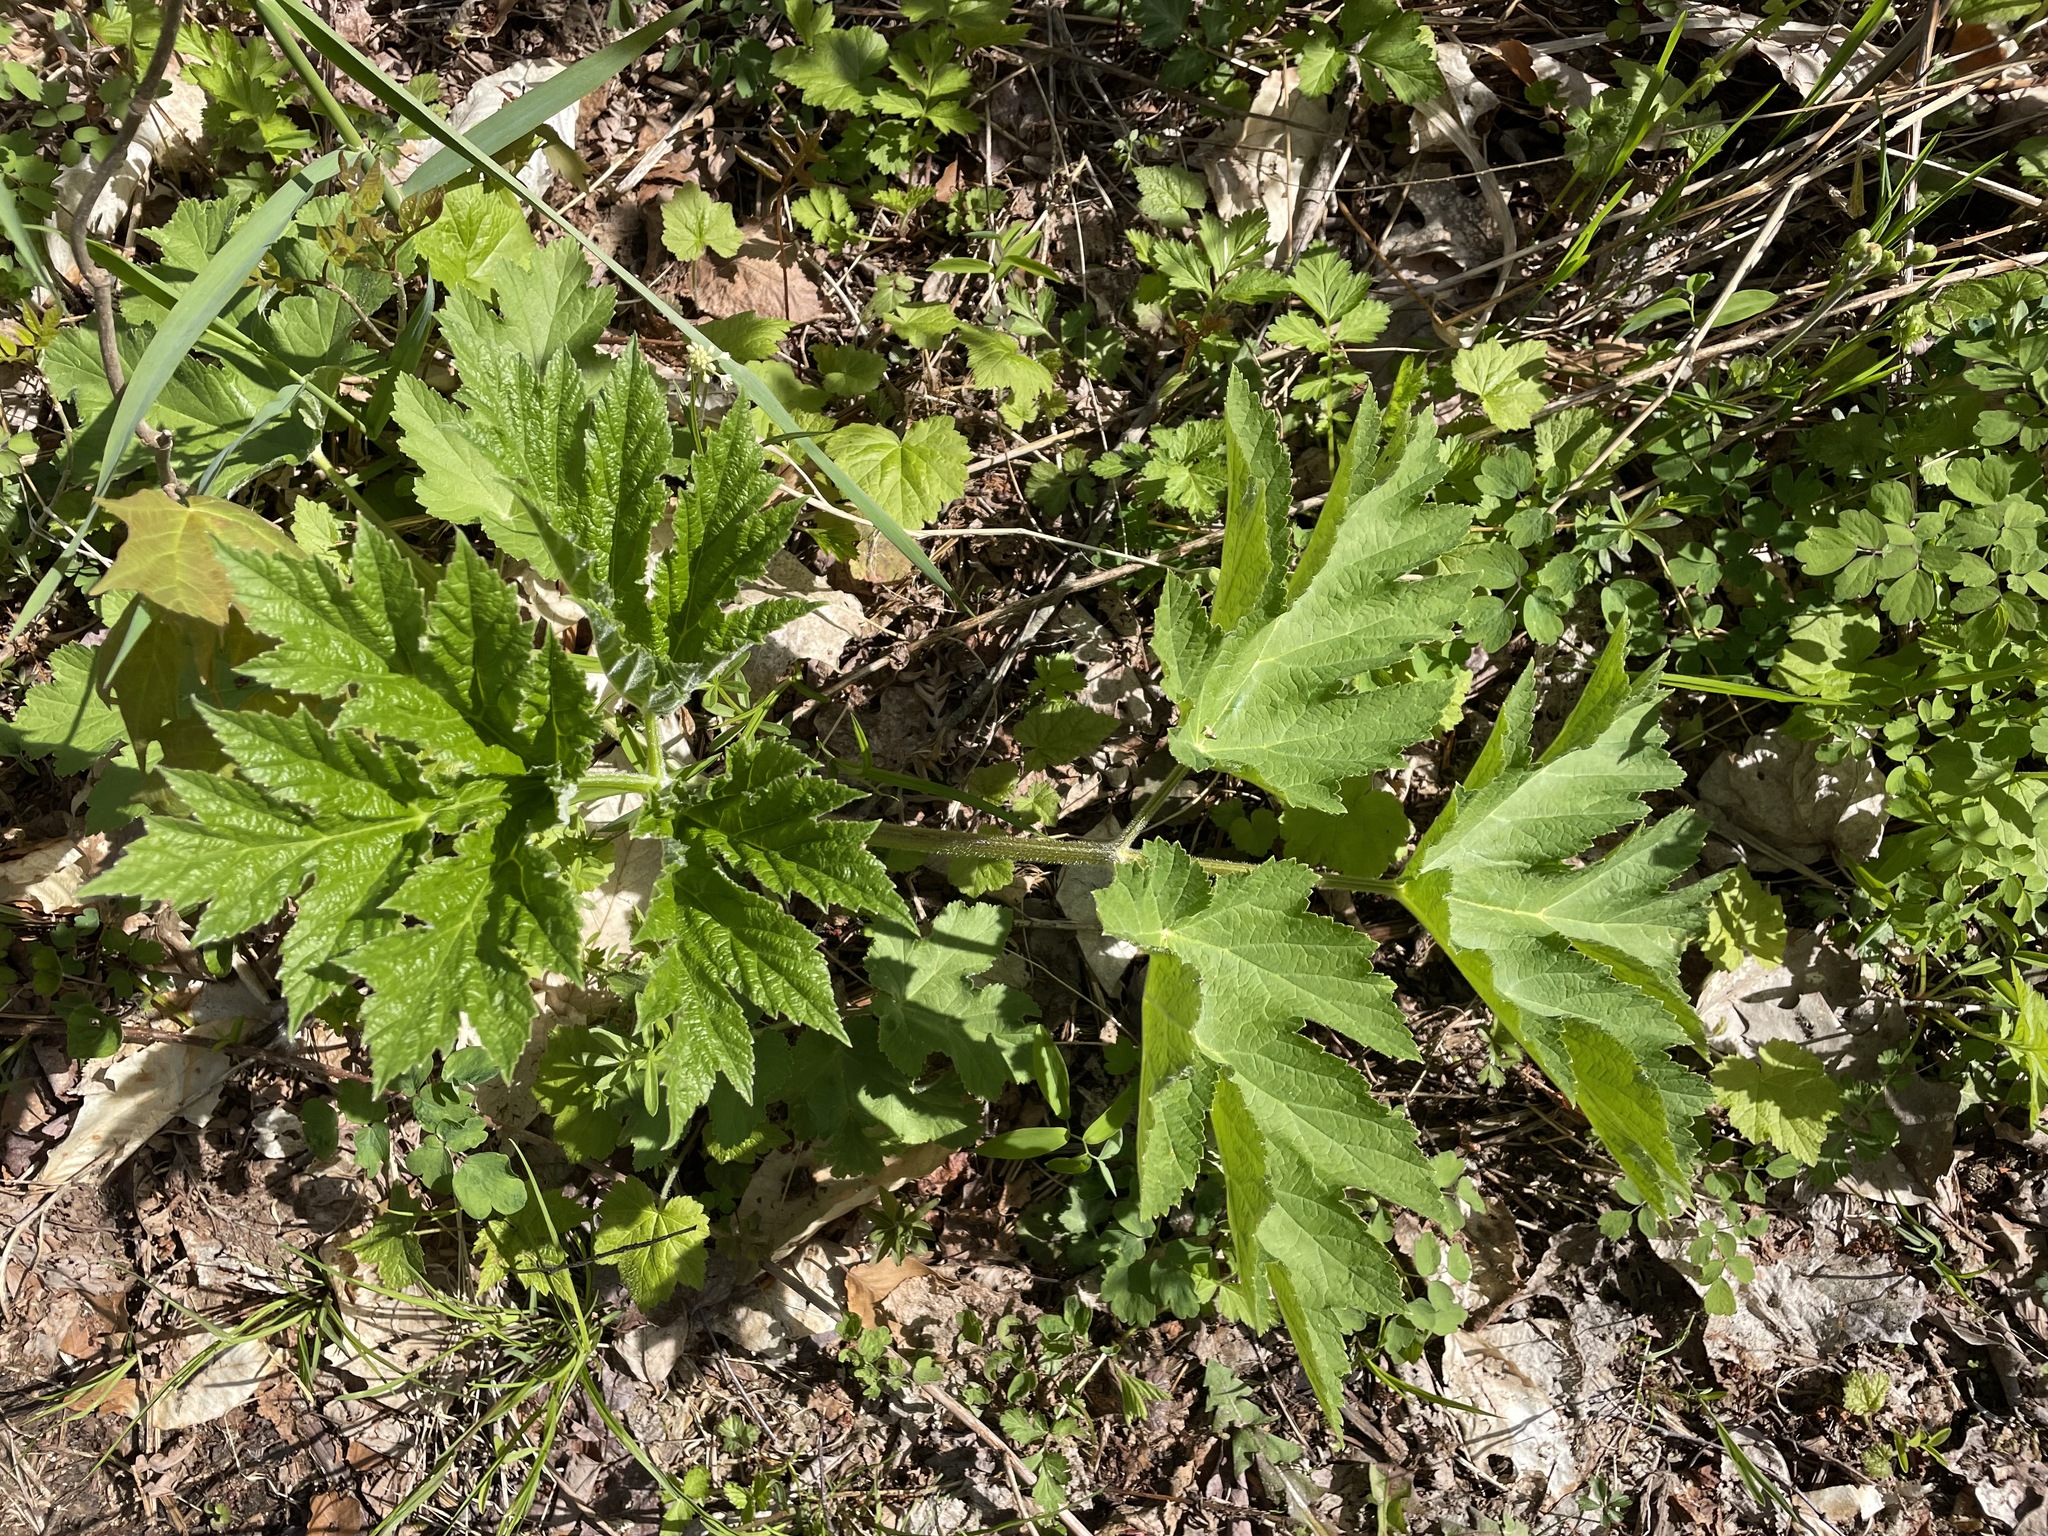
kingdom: Plantae
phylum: Tracheophyta
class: Magnoliopsida
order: Apiales
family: Apiaceae
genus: Heracleum
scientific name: Heracleum maximum
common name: American cow parsnip
